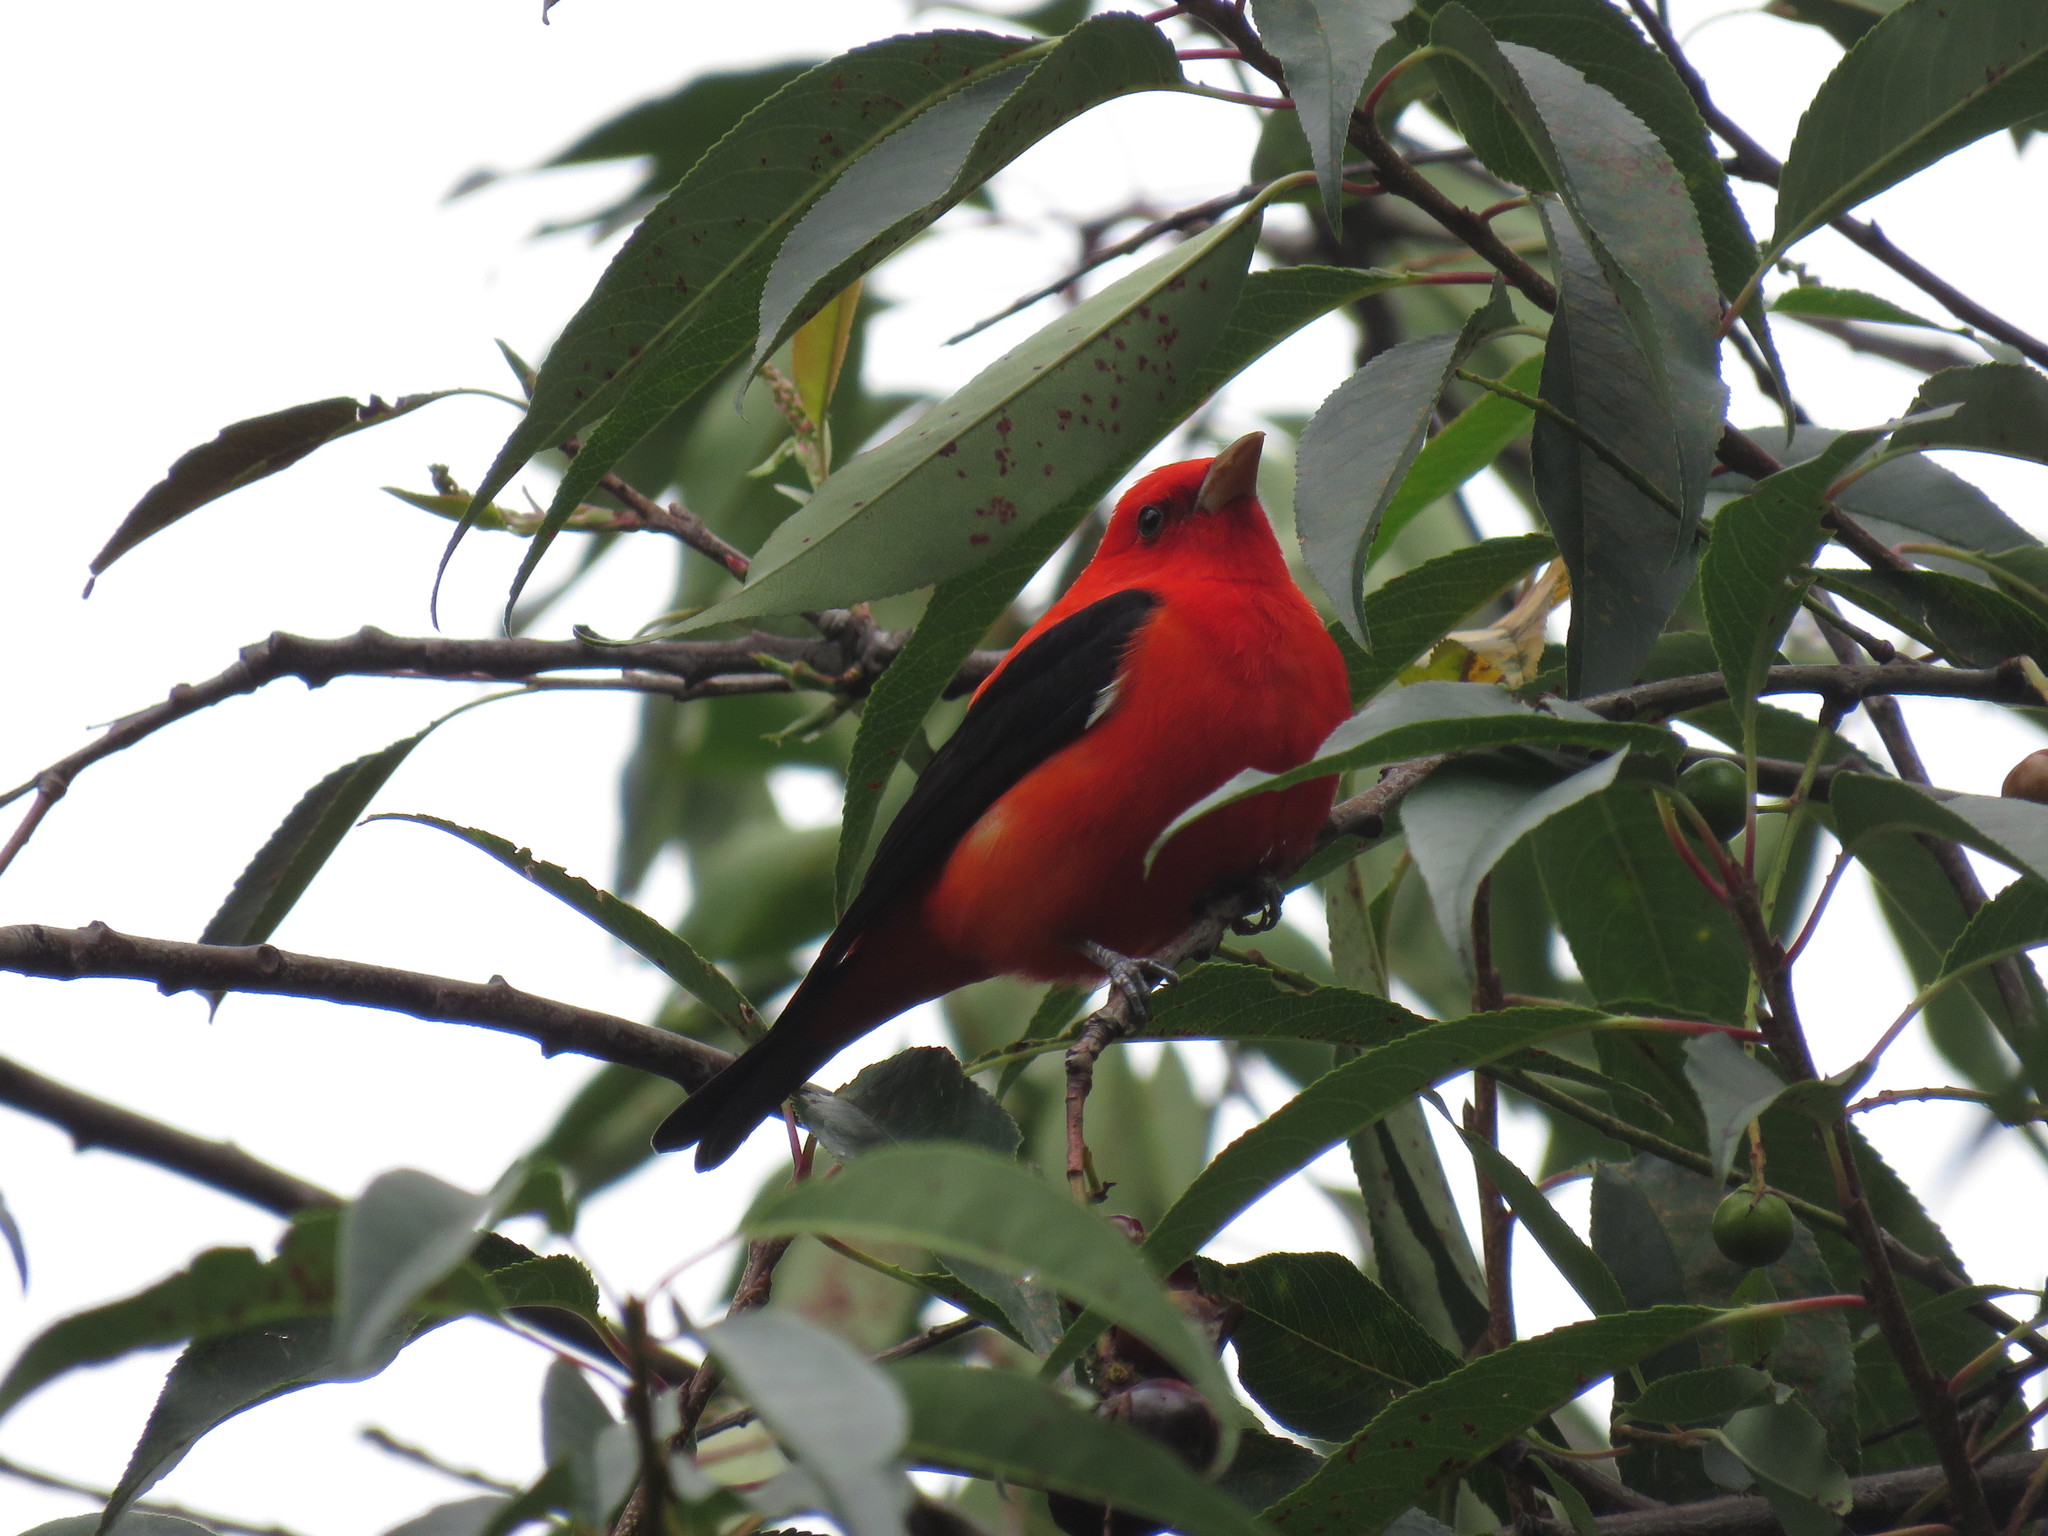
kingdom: Animalia
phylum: Chordata
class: Aves
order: Passeriformes
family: Cardinalidae
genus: Piranga
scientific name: Piranga olivacea
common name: Scarlet tanager
